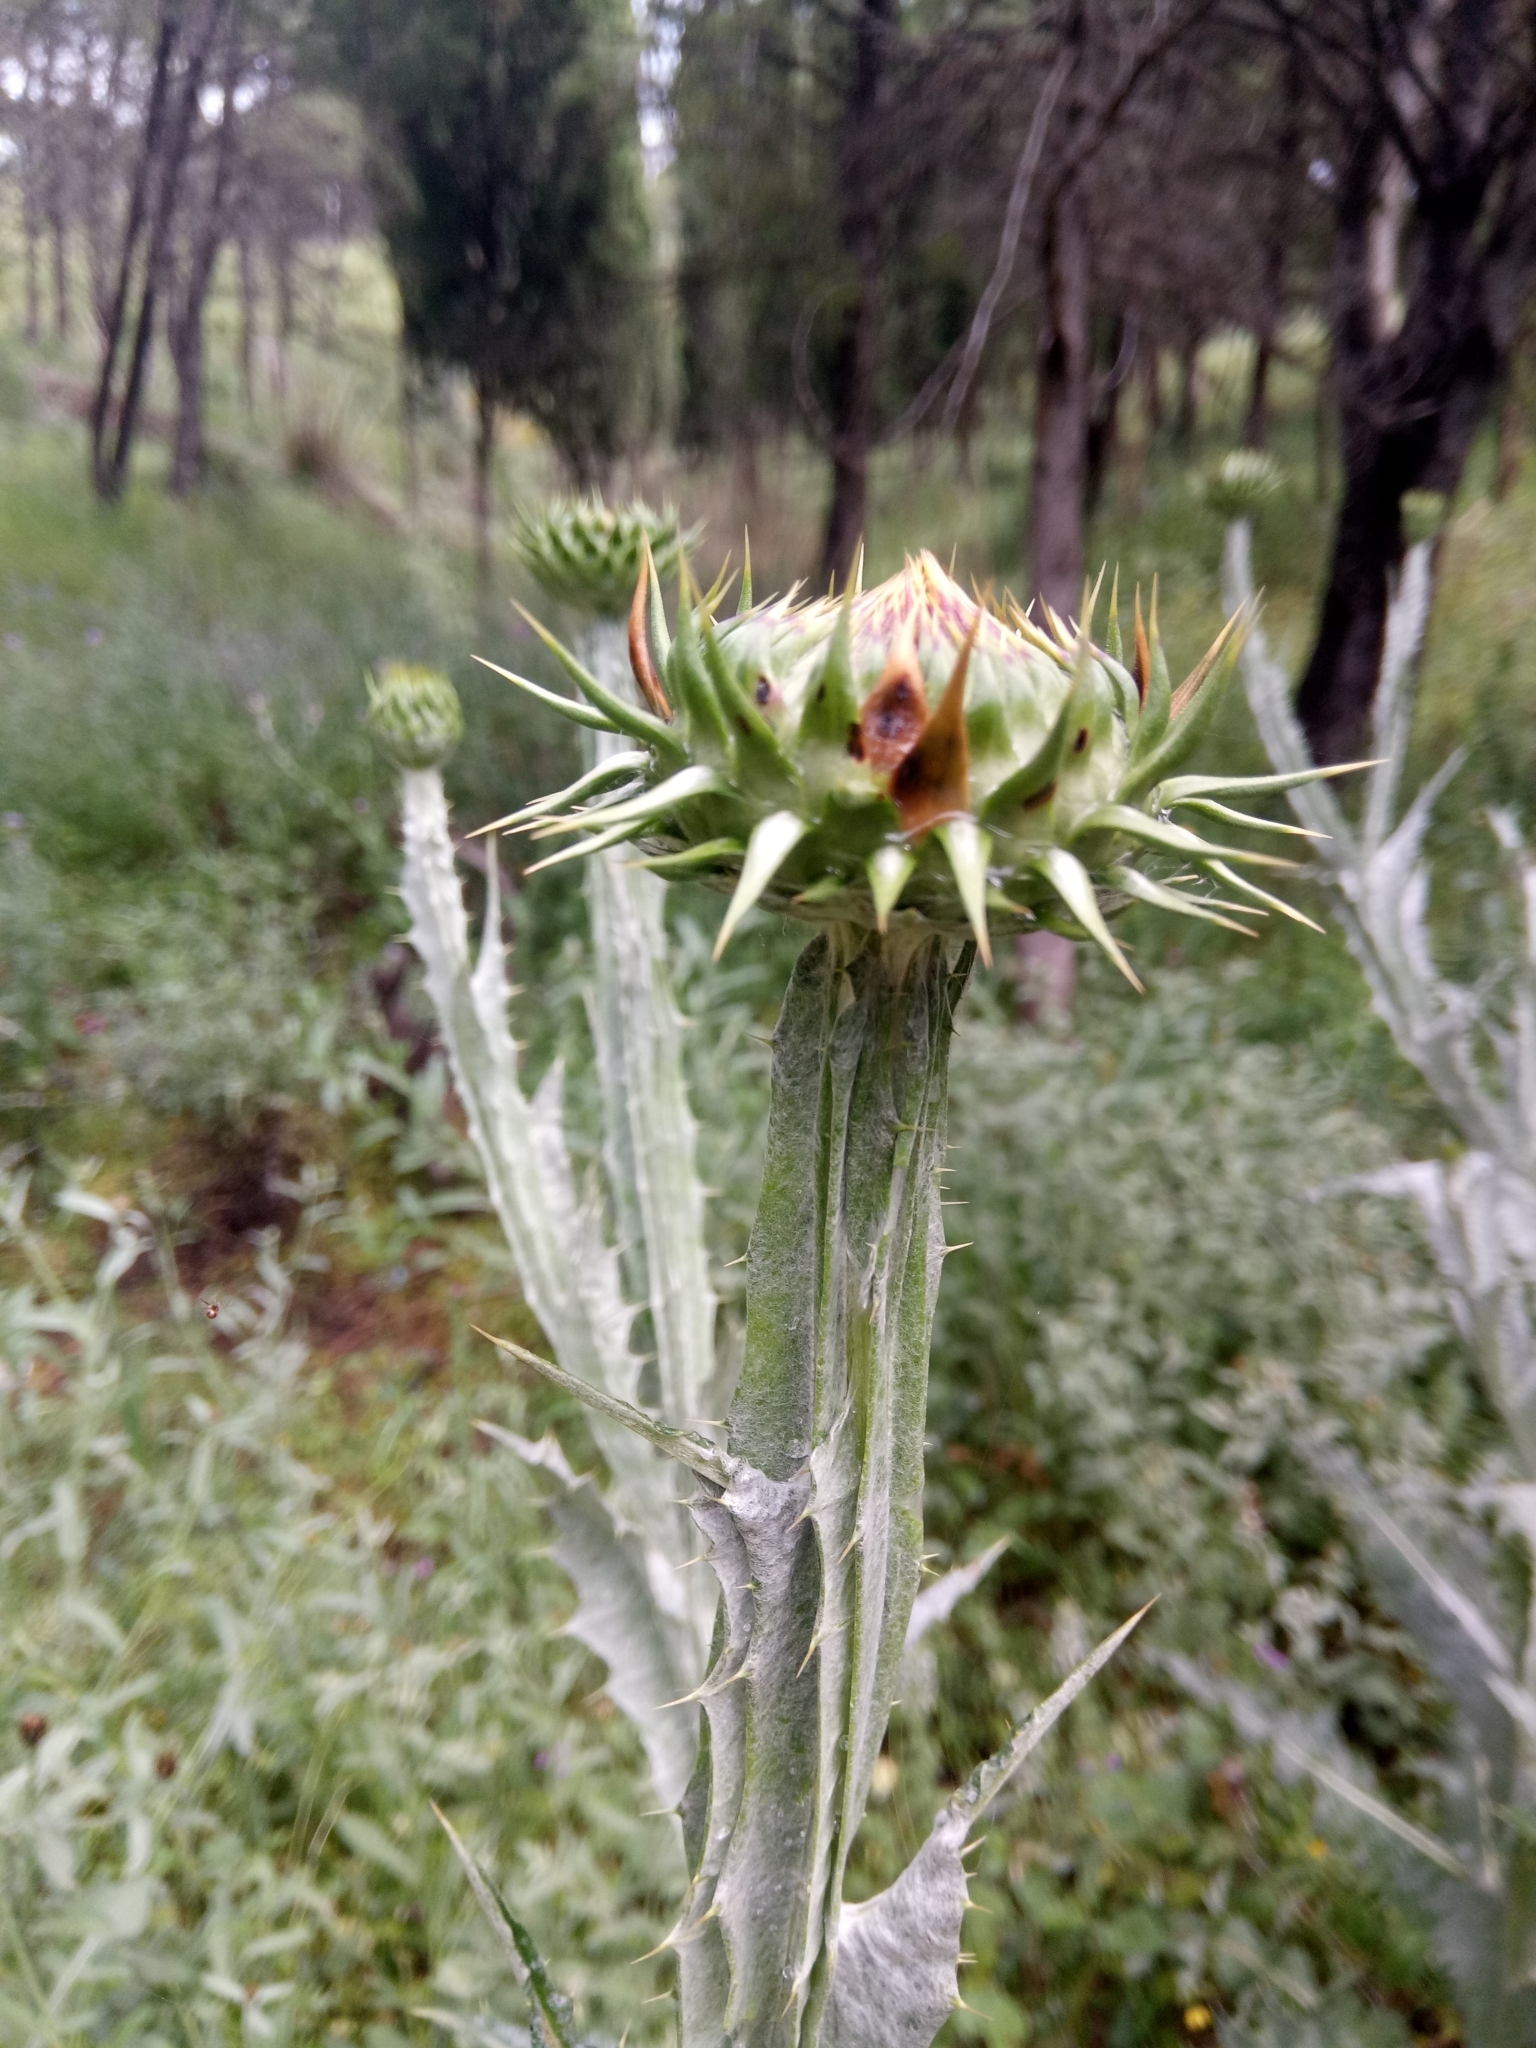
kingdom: Plantae
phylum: Tracheophyta
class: Magnoliopsida
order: Asterales
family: Asteraceae
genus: Onopordum
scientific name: Onopordum macracanthum
